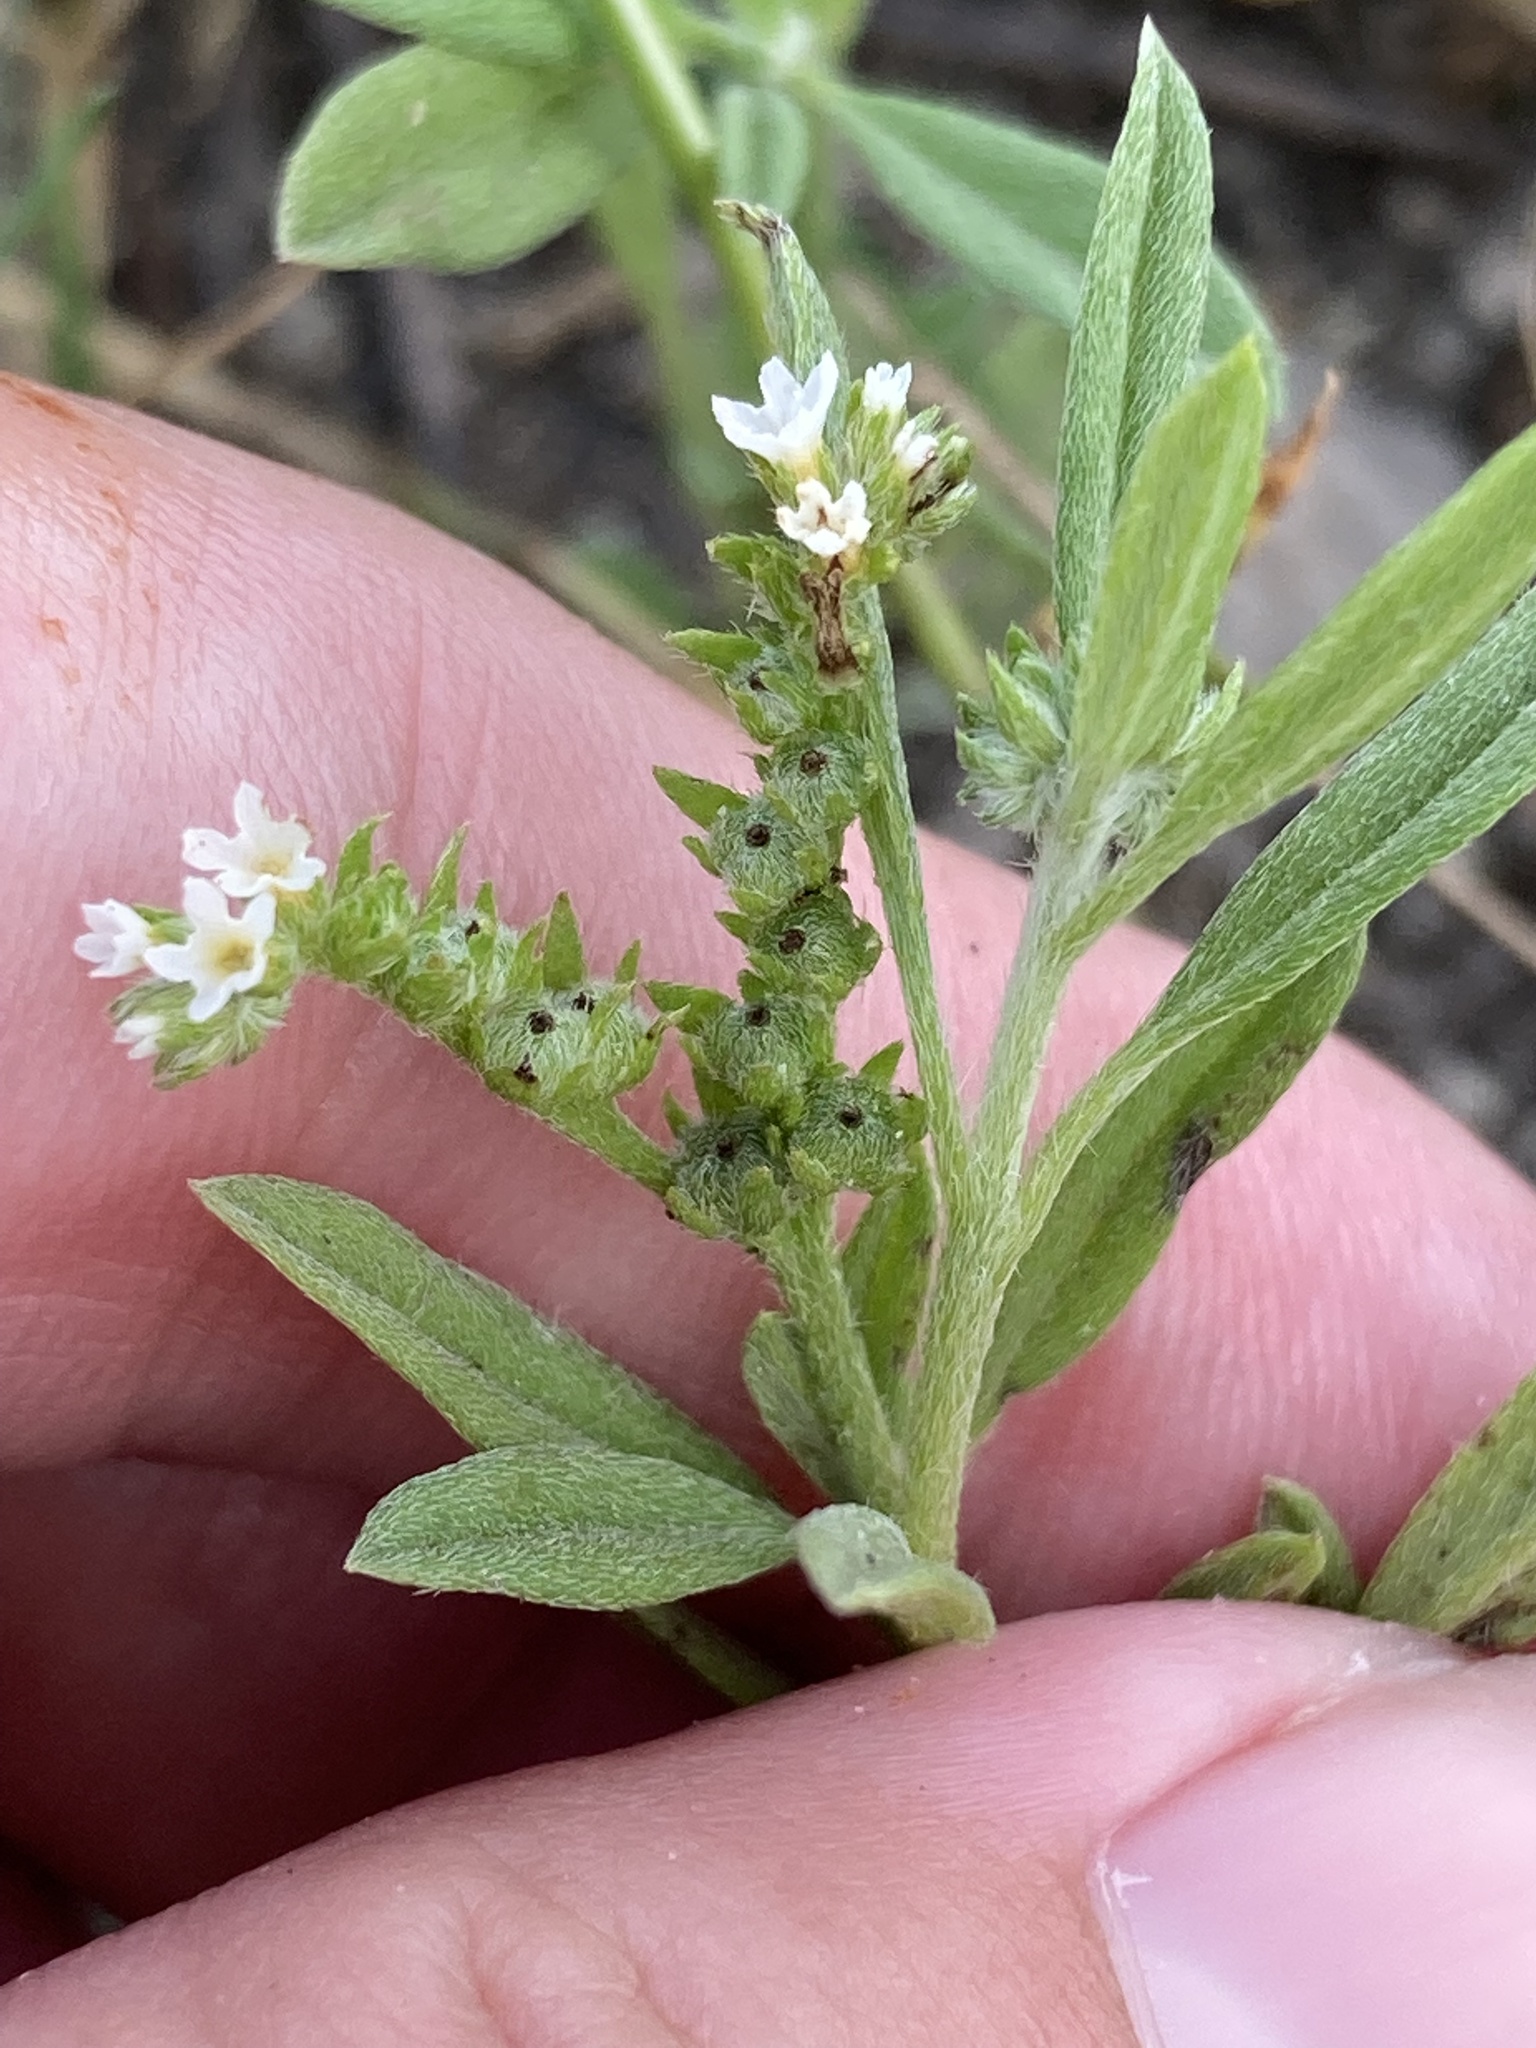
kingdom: Plantae
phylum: Tracheophyta
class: Magnoliopsida
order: Boraginales
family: Heliotropiaceae
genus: Euploca
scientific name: Euploca procumbens
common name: Fourspike heliotrope
